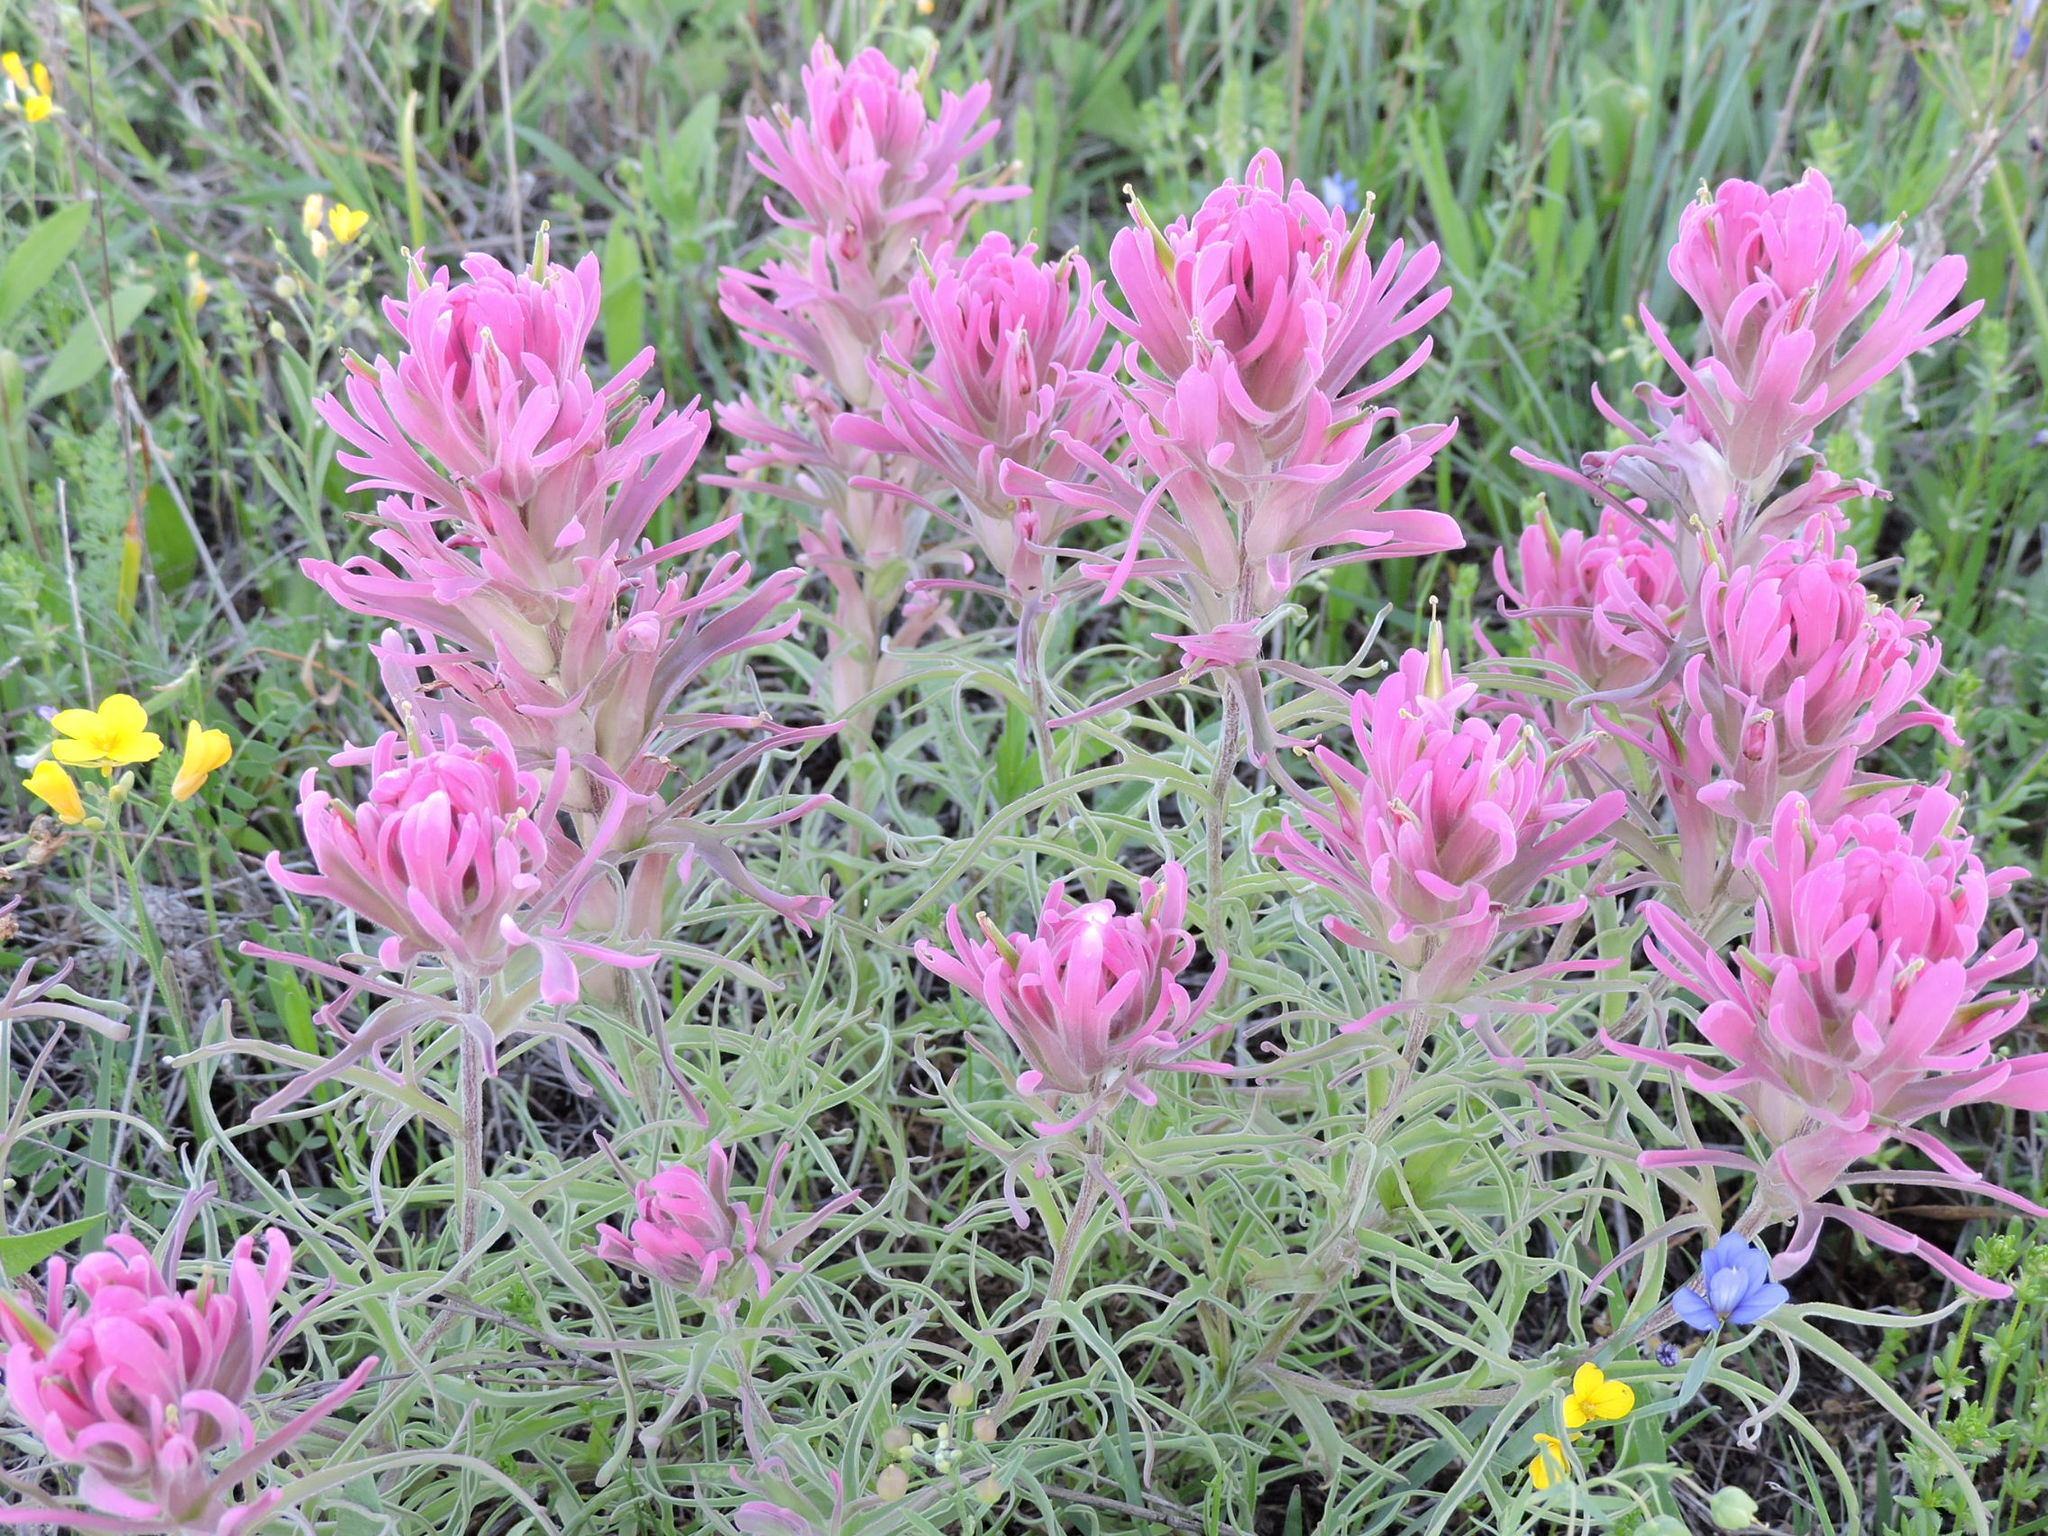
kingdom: Plantae
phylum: Tracheophyta
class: Magnoliopsida
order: Lamiales
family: Orobanchaceae
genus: Castilleja
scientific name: Castilleja purpurea
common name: Plains paintbrush
